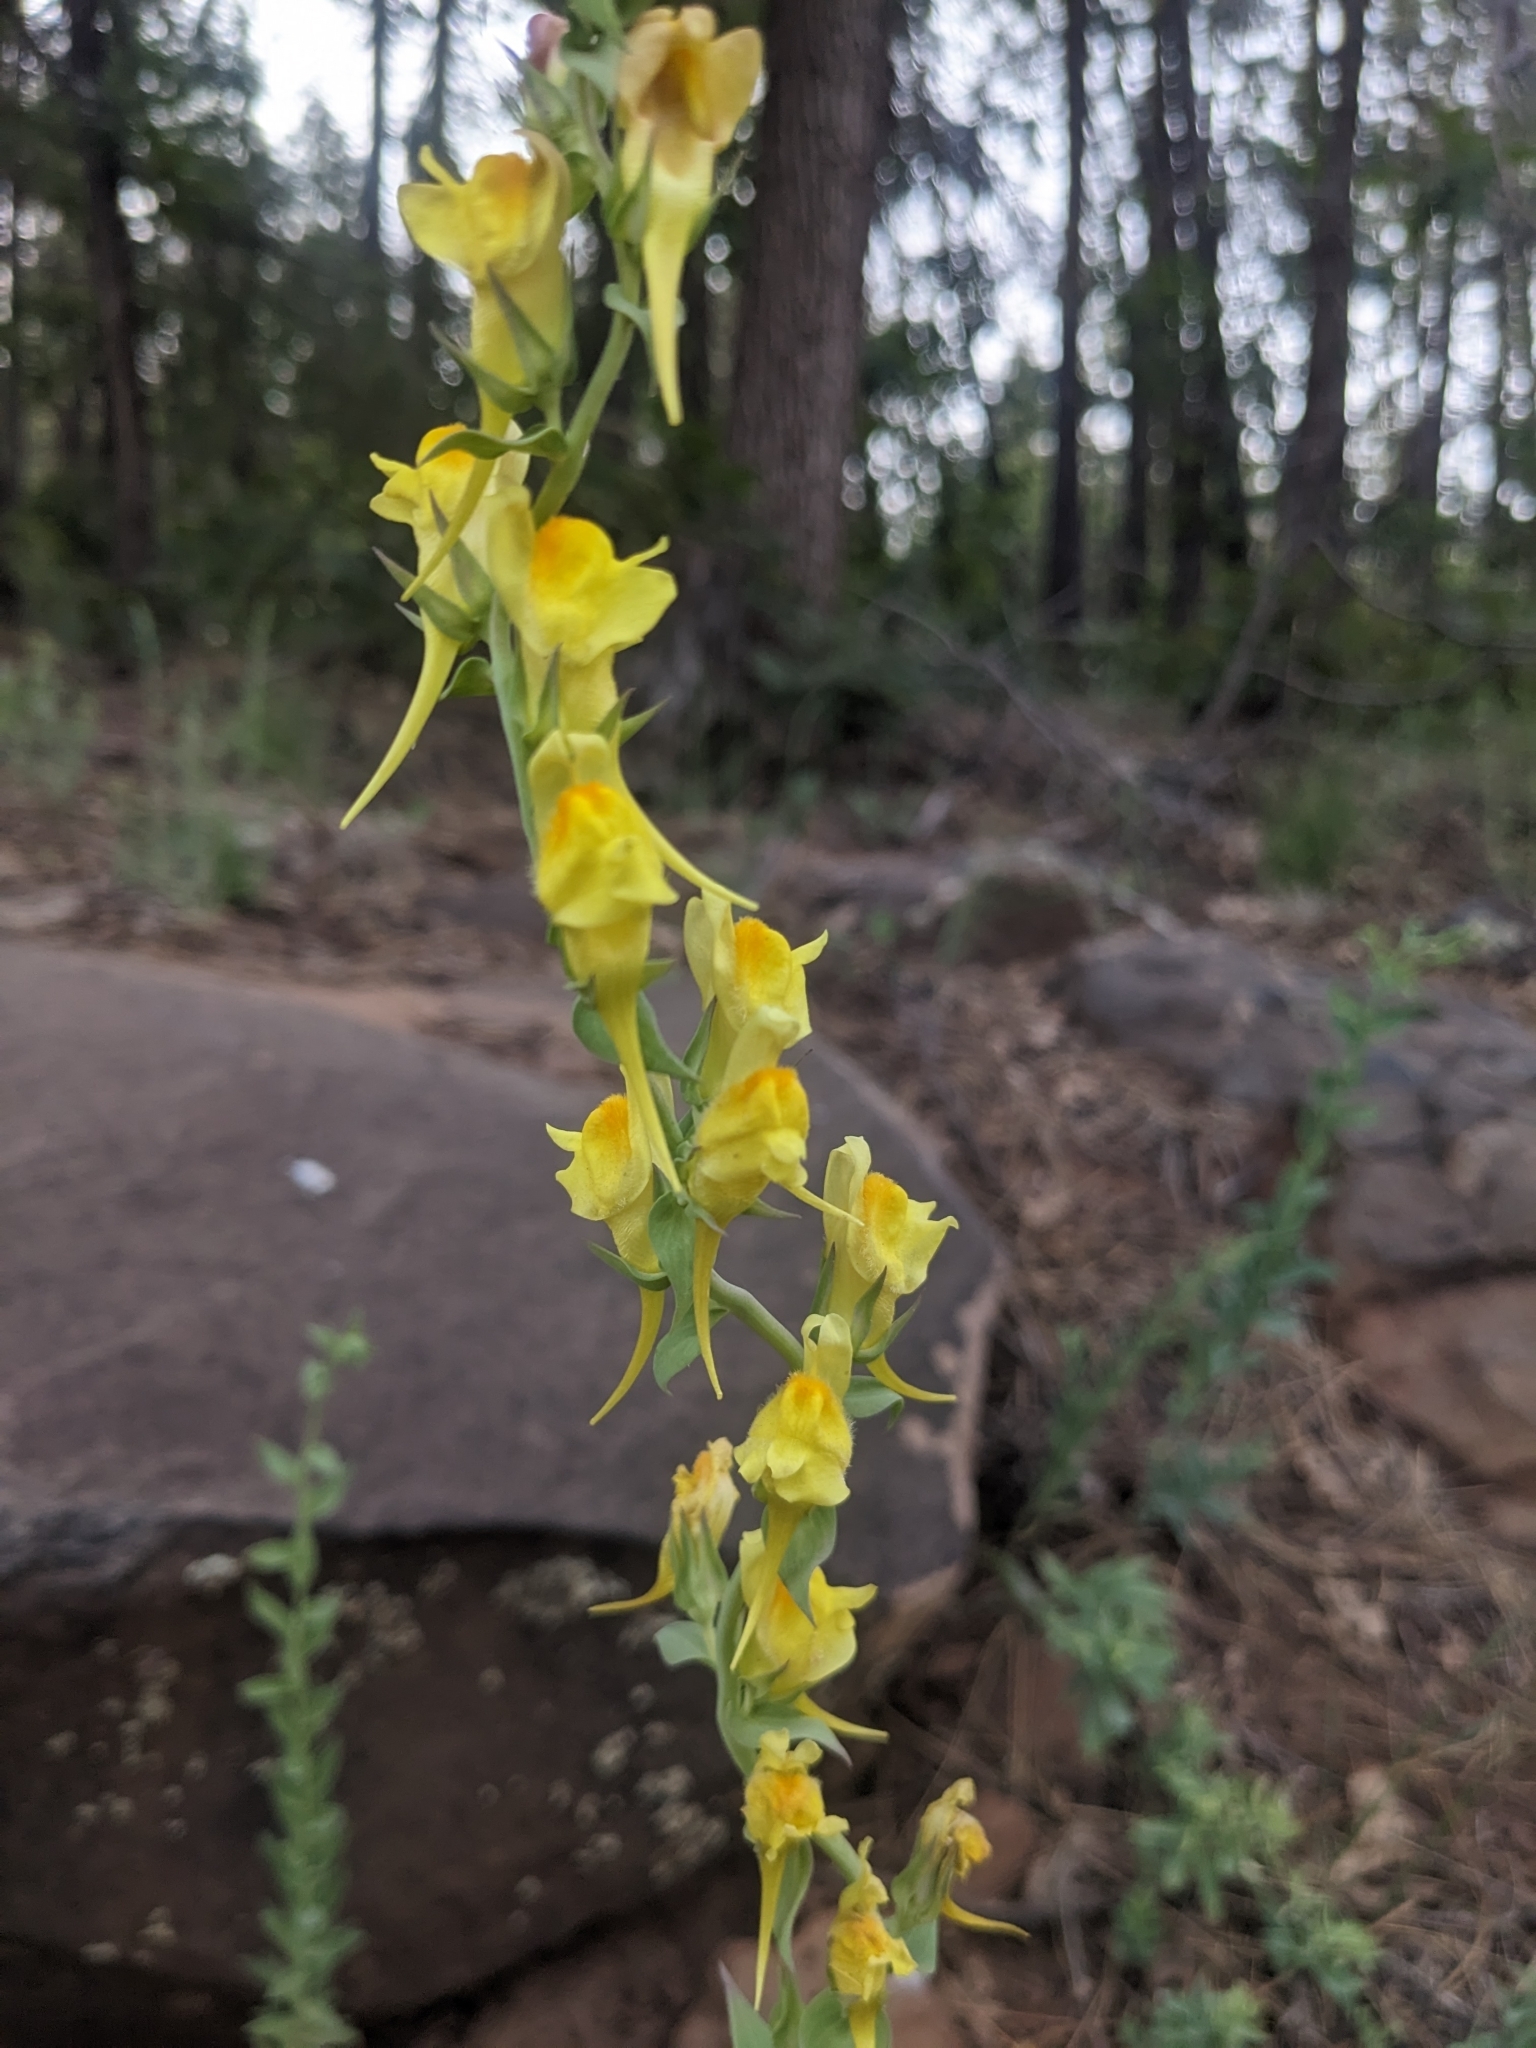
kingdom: Plantae
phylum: Tracheophyta
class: Magnoliopsida
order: Lamiales
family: Plantaginaceae
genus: Linaria
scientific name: Linaria dalmatica
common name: Dalmatian toadflax
